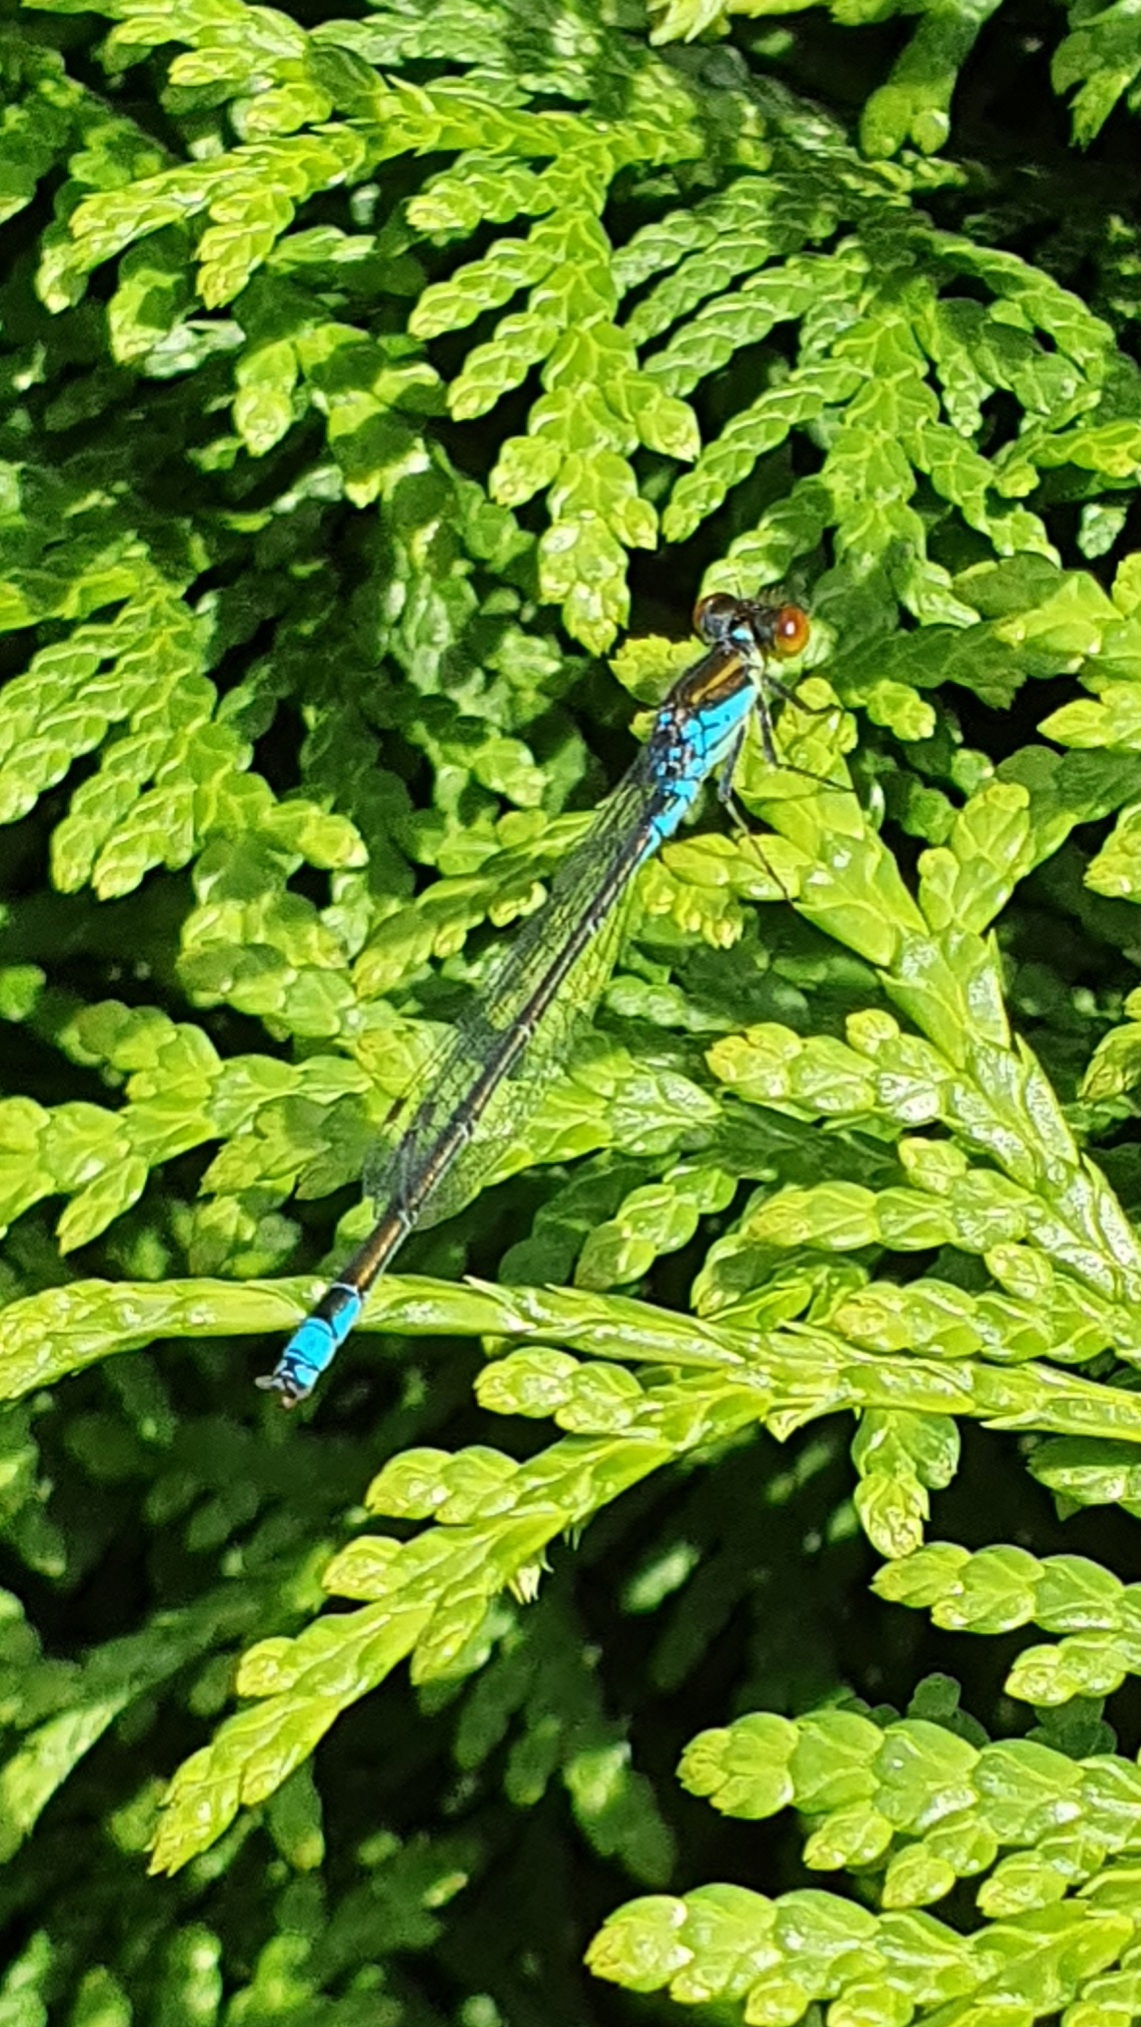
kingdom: Animalia
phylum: Arthropoda
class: Insecta
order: Odonata
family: Coenagrionidae
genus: Erythromma
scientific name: Erythromma viridulum
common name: Small red-eyed damselfly
